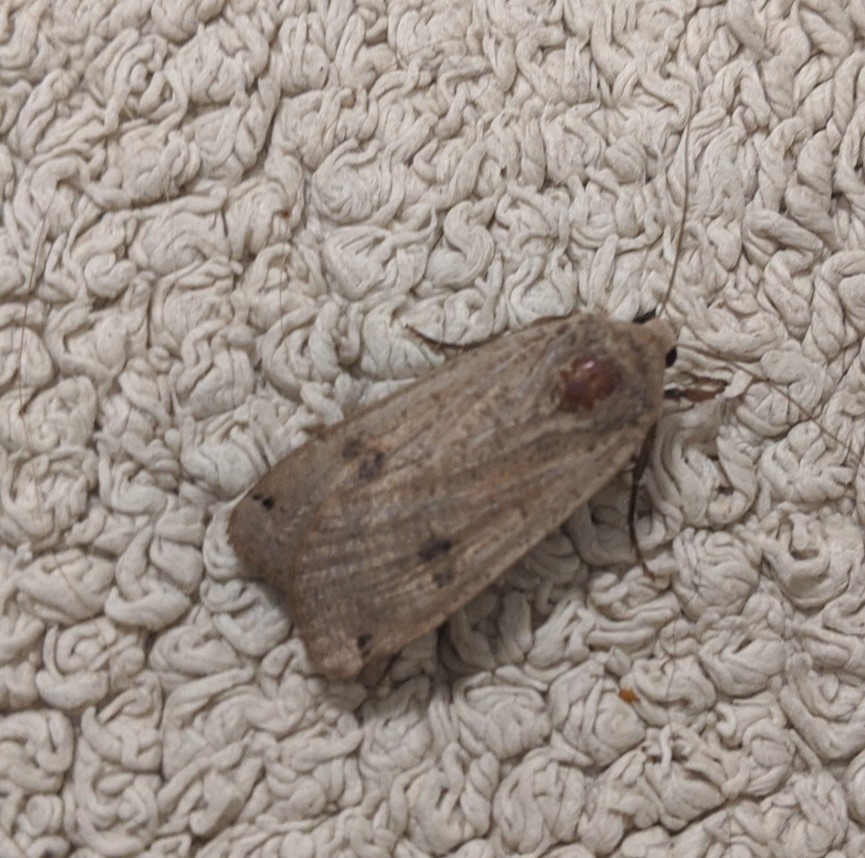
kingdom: Animalia
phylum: Arthropoda
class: Insecta
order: Lepidoptera
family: Noctuidae
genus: Noctua
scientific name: Noctua pronuba
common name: Large yellow underwing
